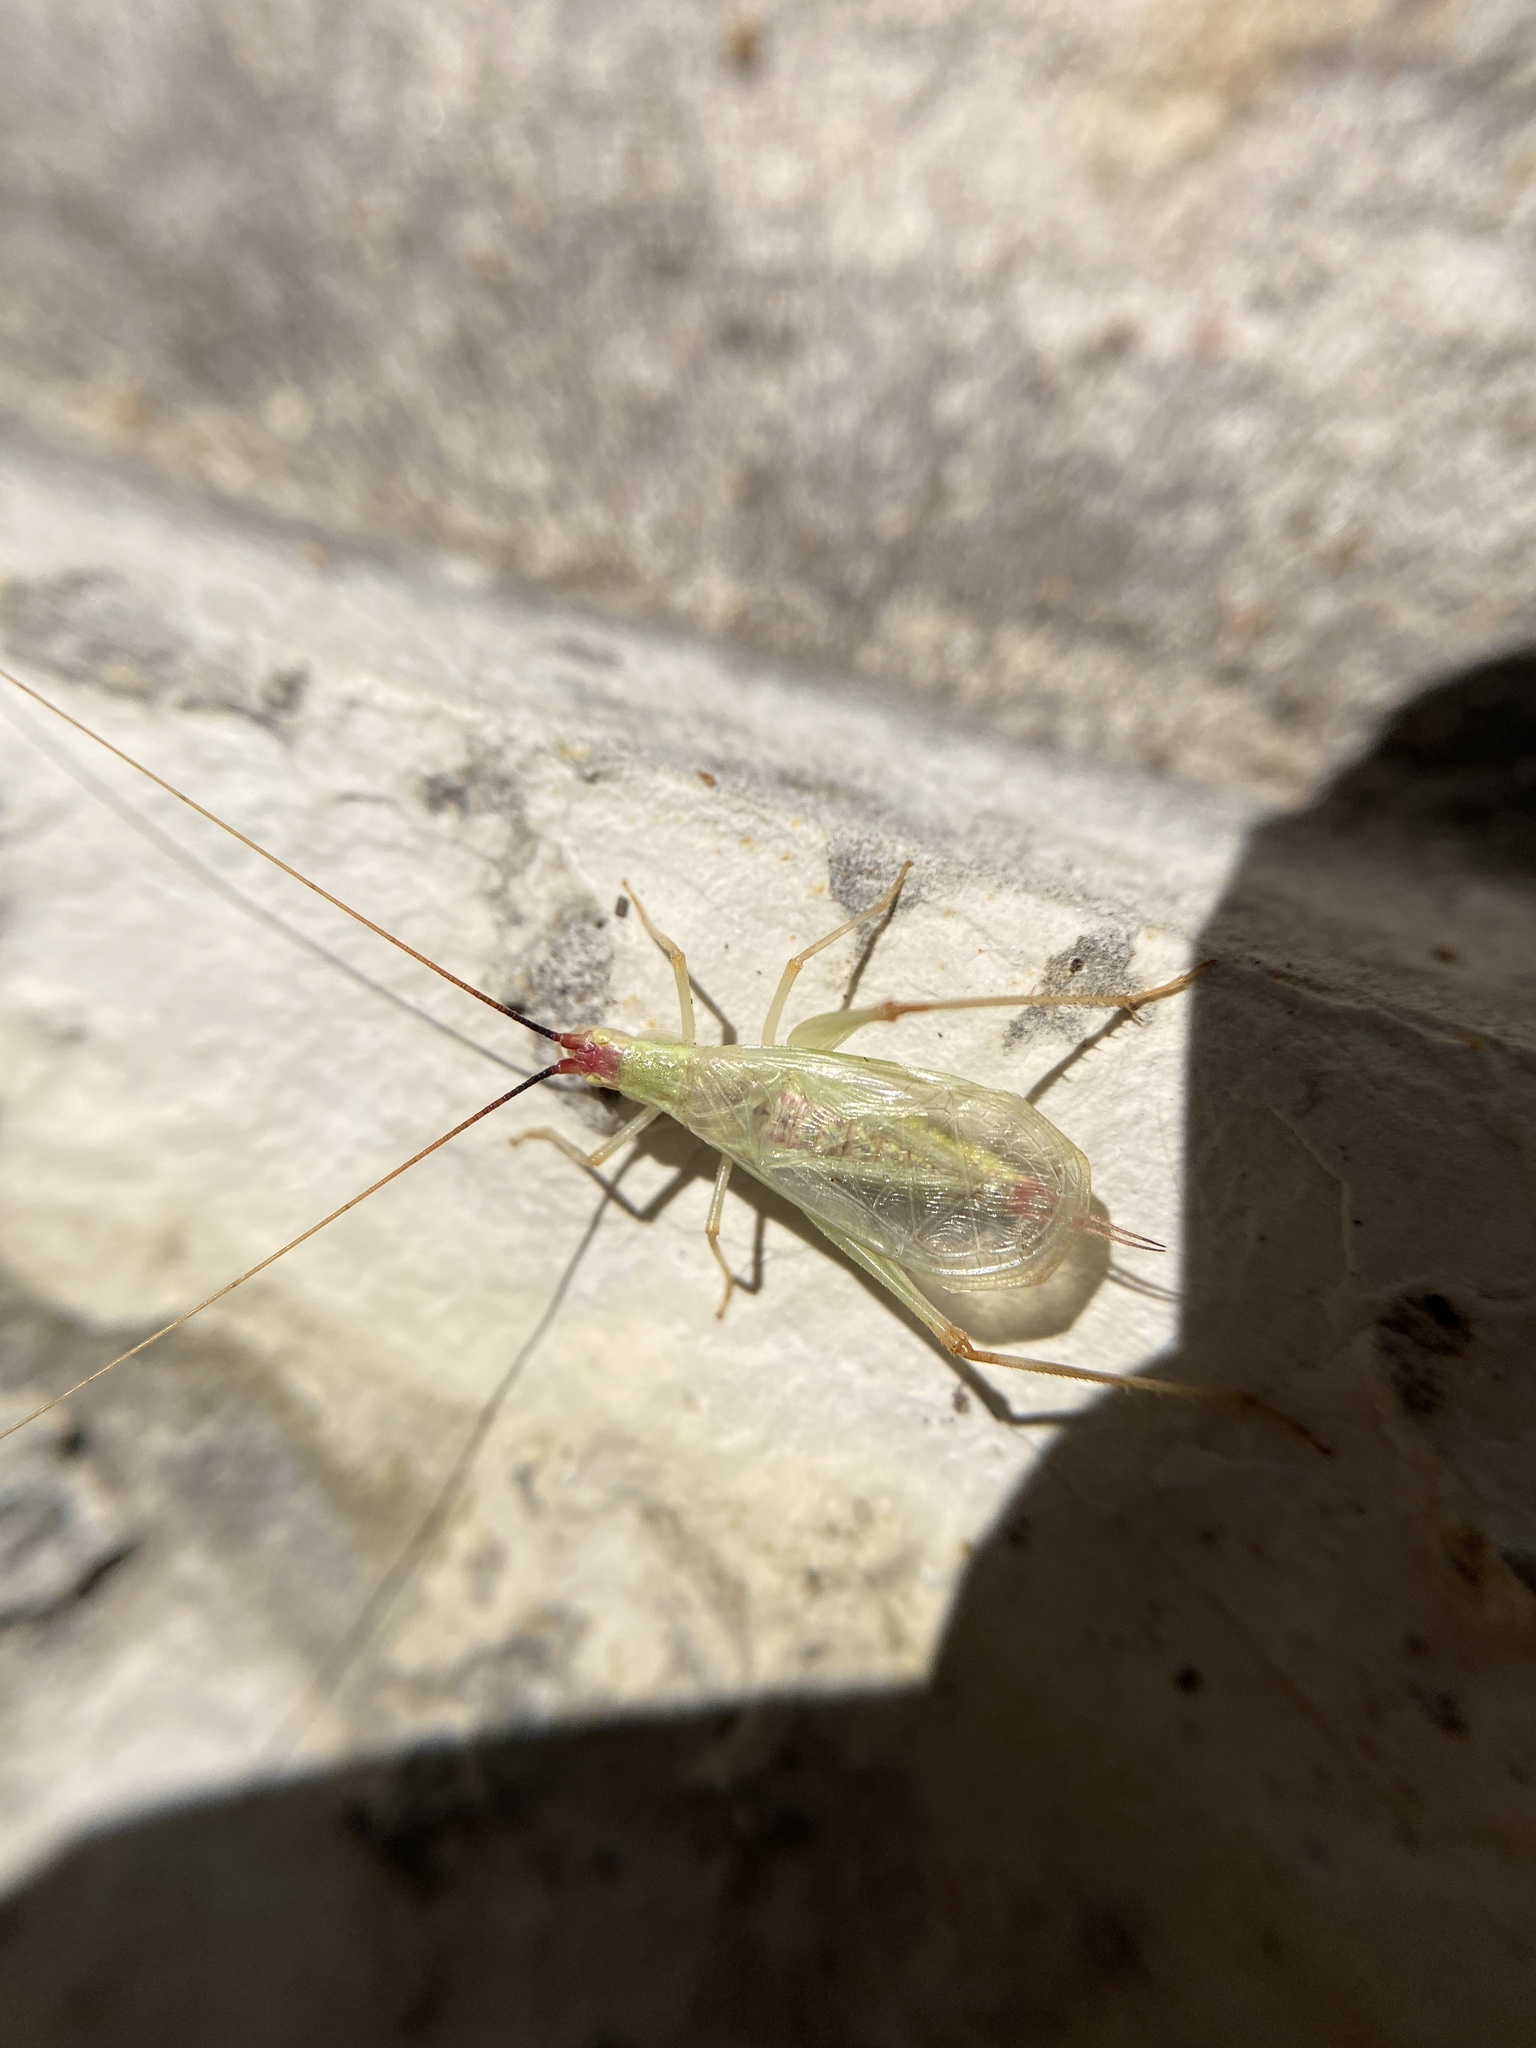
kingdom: Animalia
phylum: Arthropoda
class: Insecta
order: Orthoptera
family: Gryllidae
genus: Oecanthus
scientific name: Oecanthus texensis
